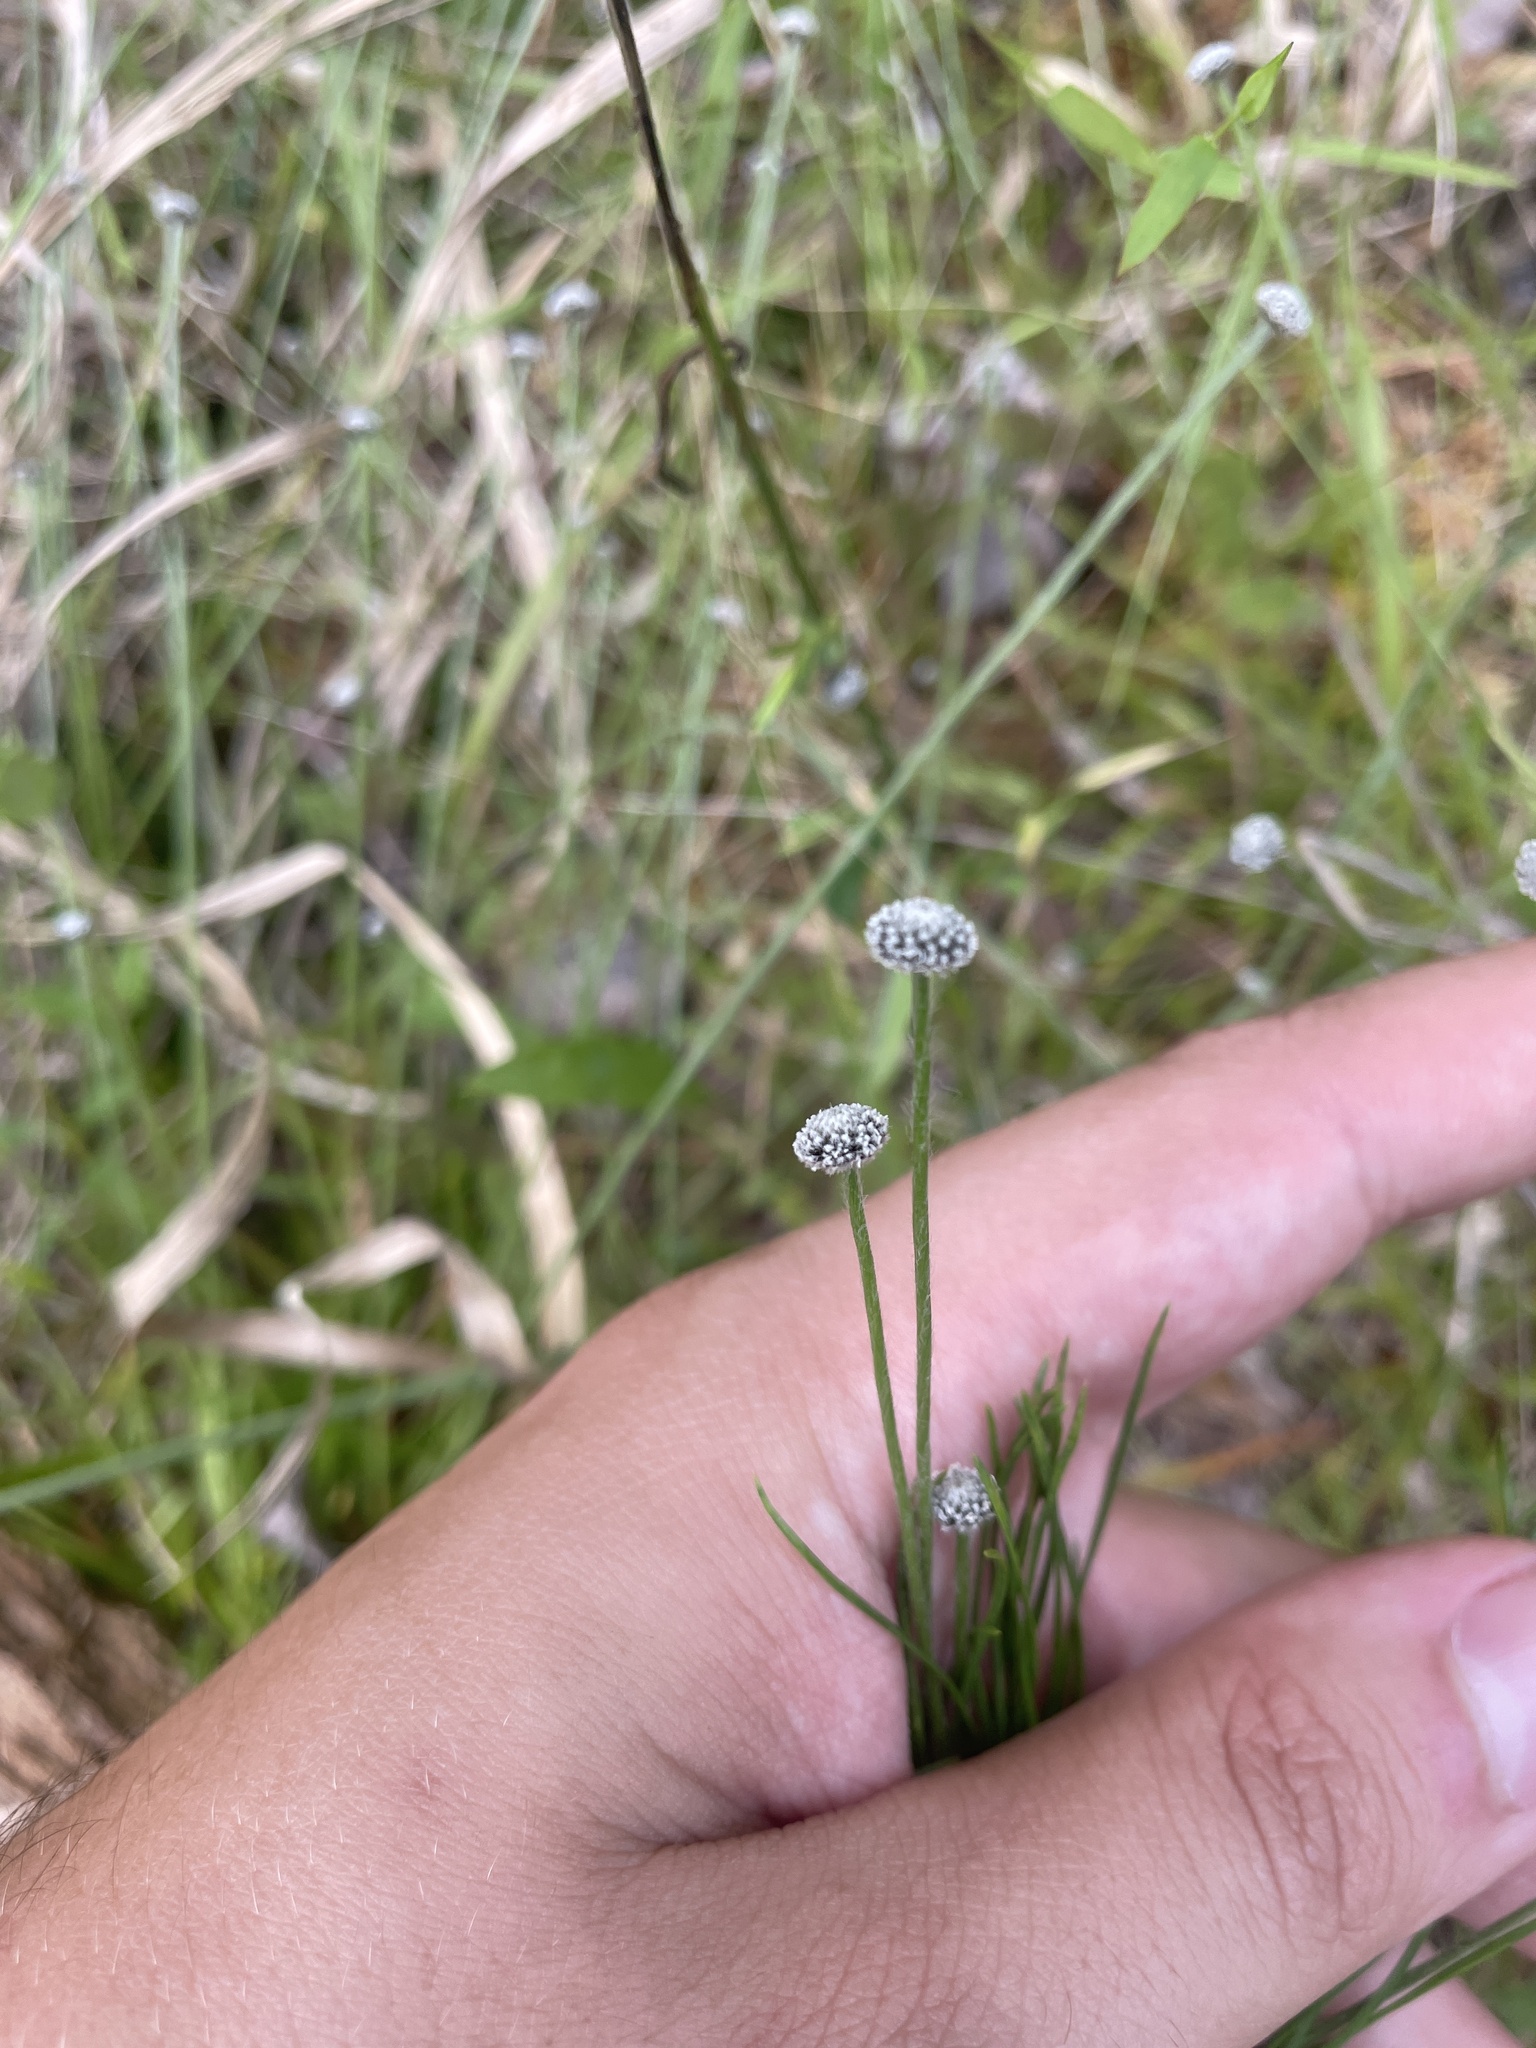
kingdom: Plantae
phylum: Tracheophyta
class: Liliopsida
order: Poales
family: Eriocaulaceae
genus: Paepalanthus
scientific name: Paepalanthus anceps
